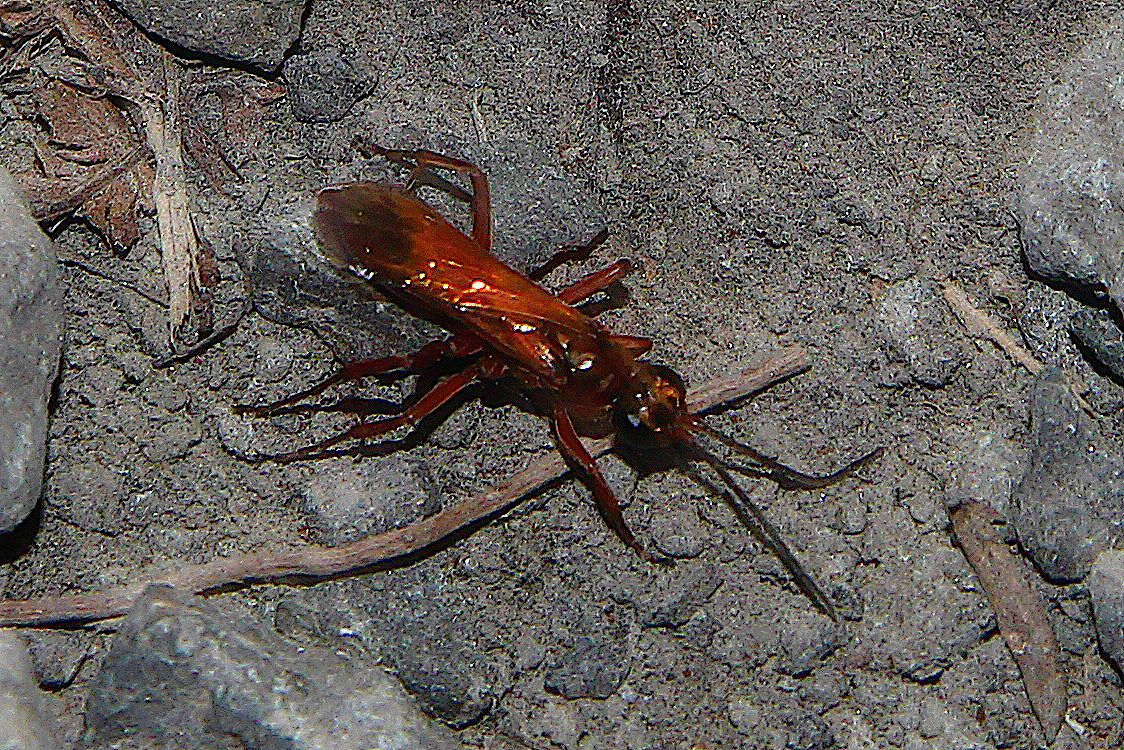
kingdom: Animalia
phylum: Arthropoda
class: Insecta
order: Hymenoptera
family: Pompilidae
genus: Sphictostethus
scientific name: Sphictostethus nitidus
